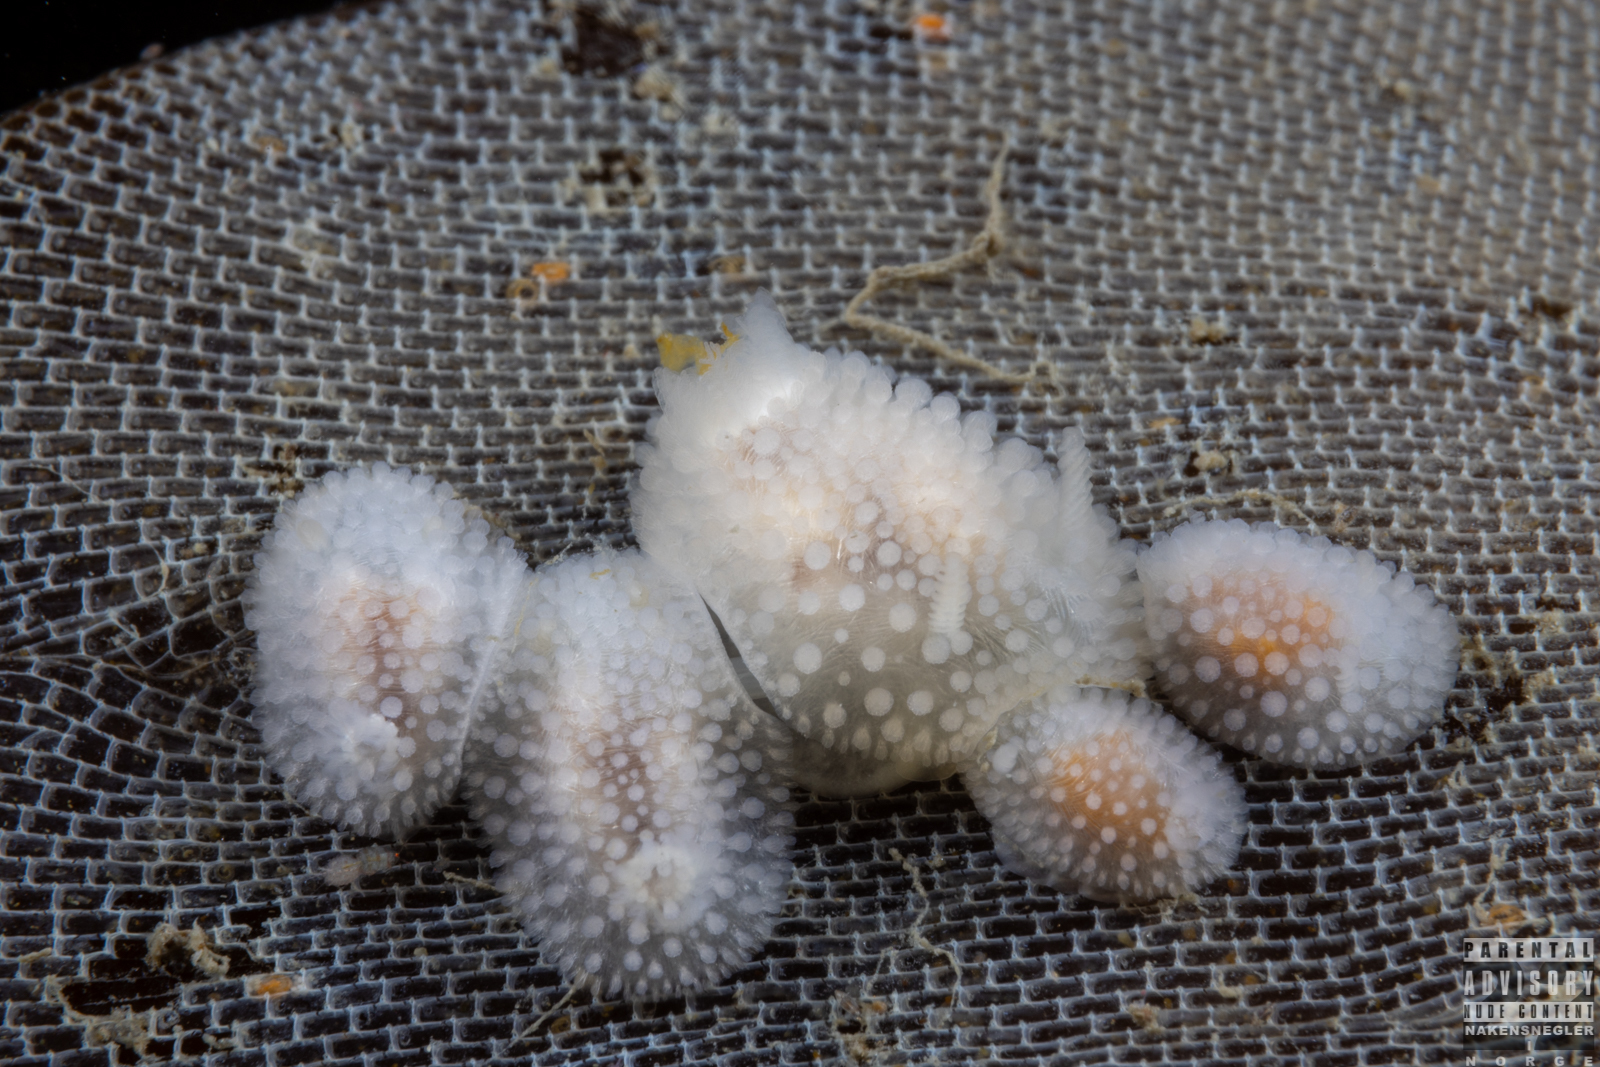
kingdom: Animalia
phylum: Mollusca
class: Gastropoda
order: Nudibranchia
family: Onchidorididae
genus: Onchidoris
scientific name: Onchidoris muricata
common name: Rough doris
